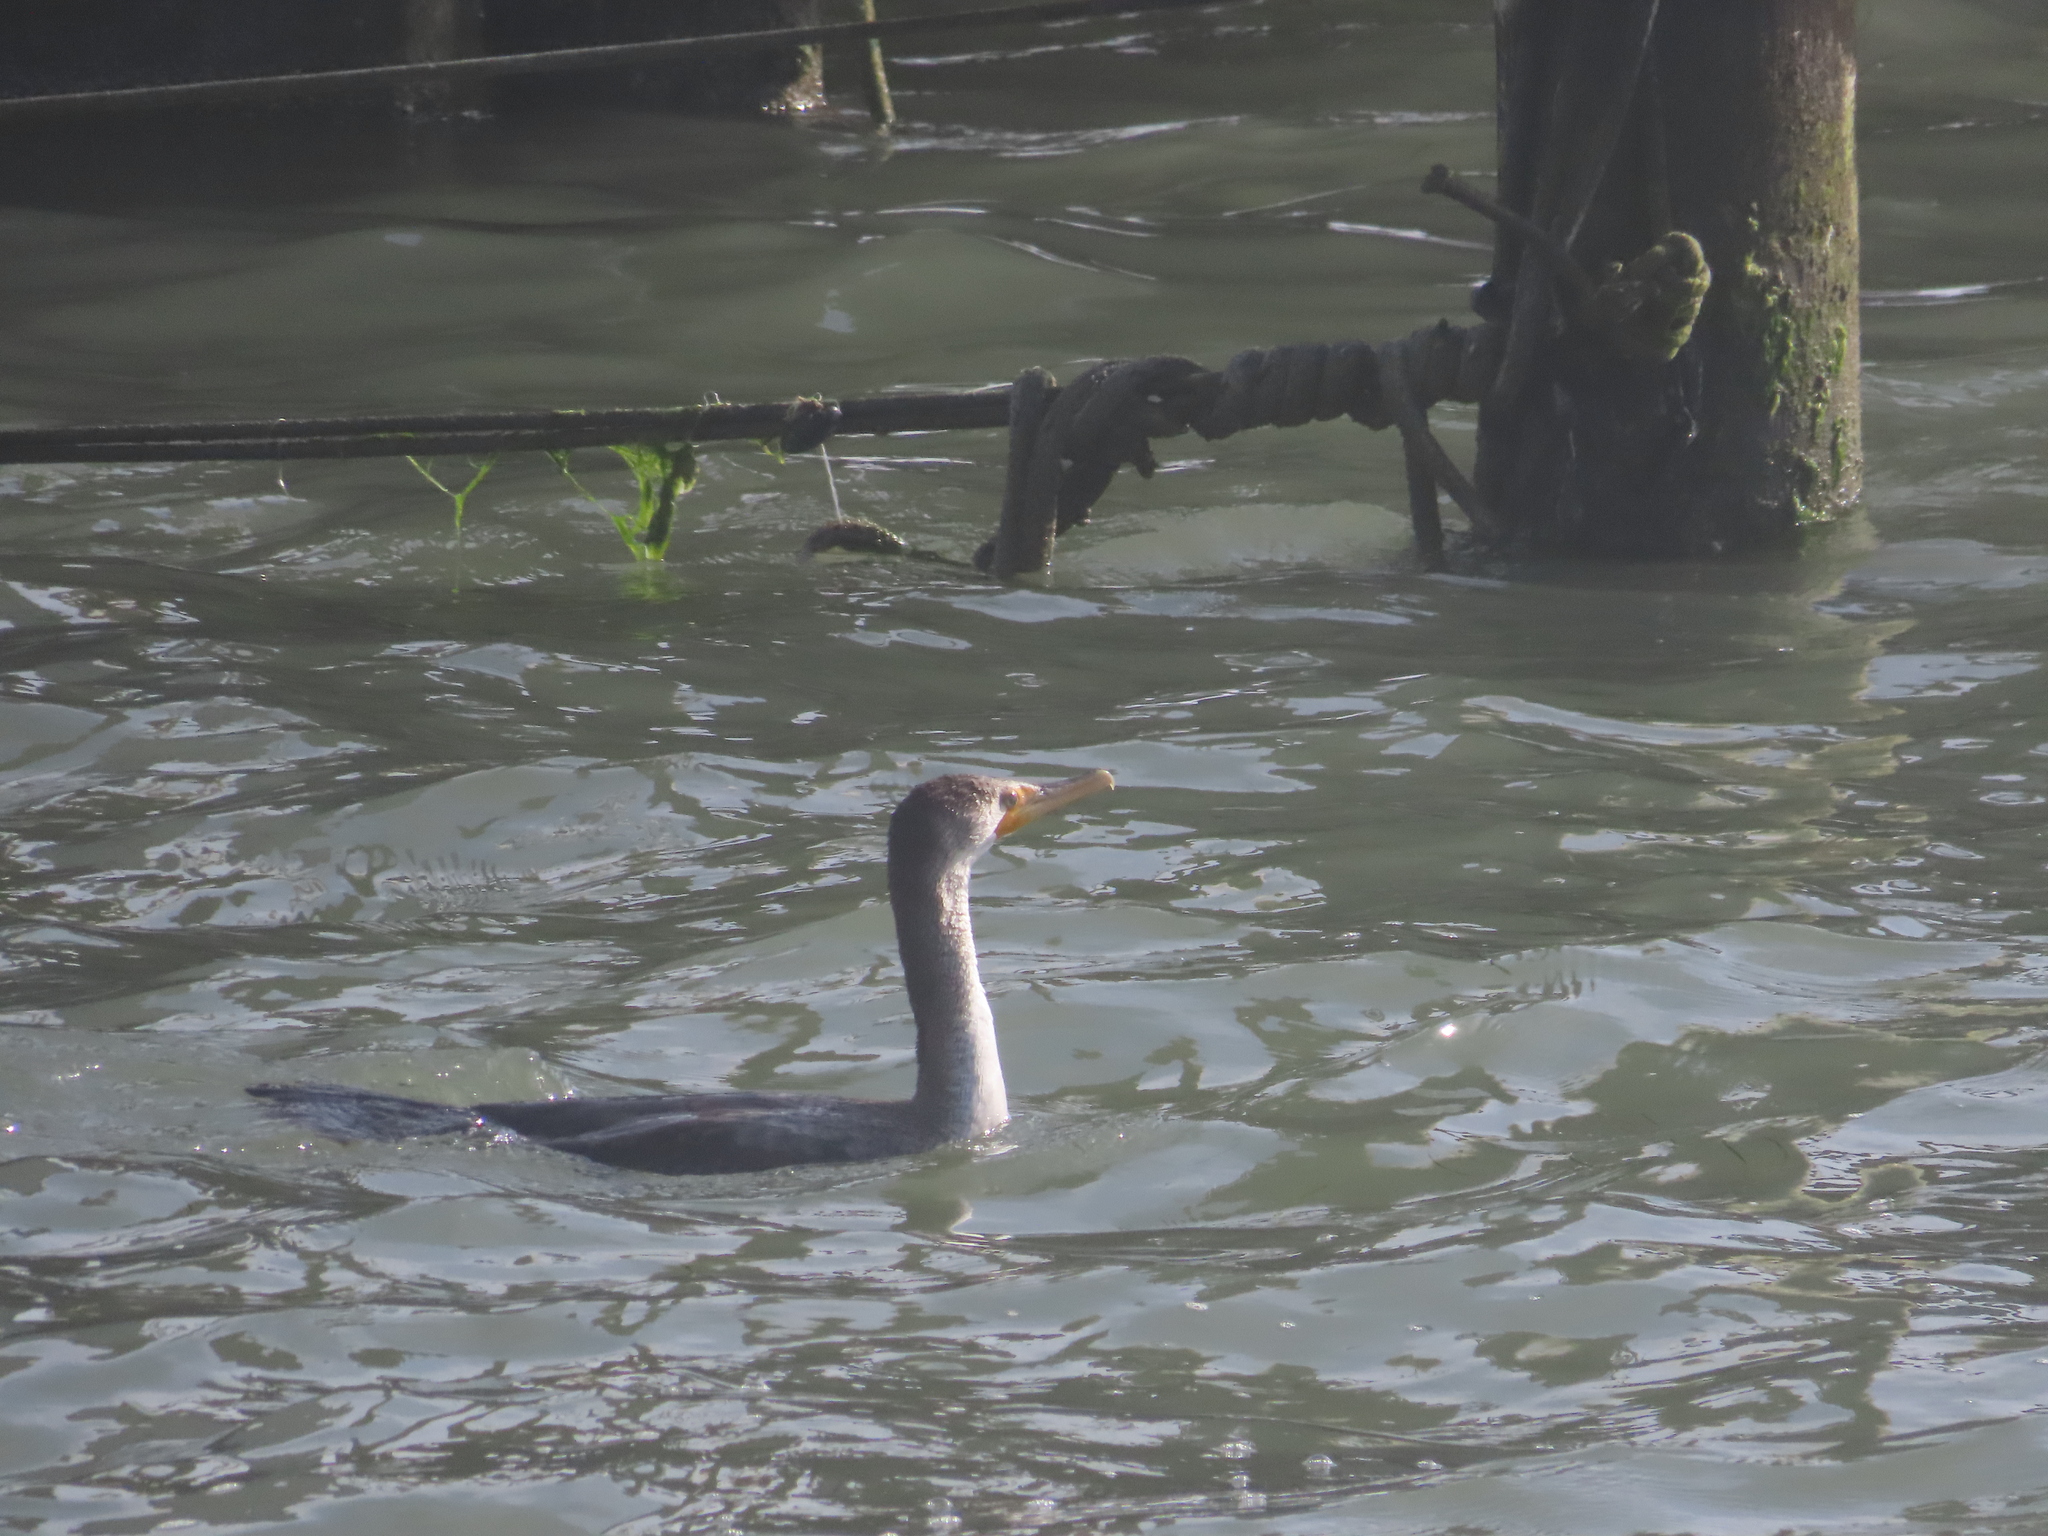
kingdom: Animalia
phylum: Chordata
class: Aves
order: Suliformes
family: Phalacrocoracidae
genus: Phalacrocorax
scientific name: Phalacrocorax auritus
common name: Double-crested cormorant
